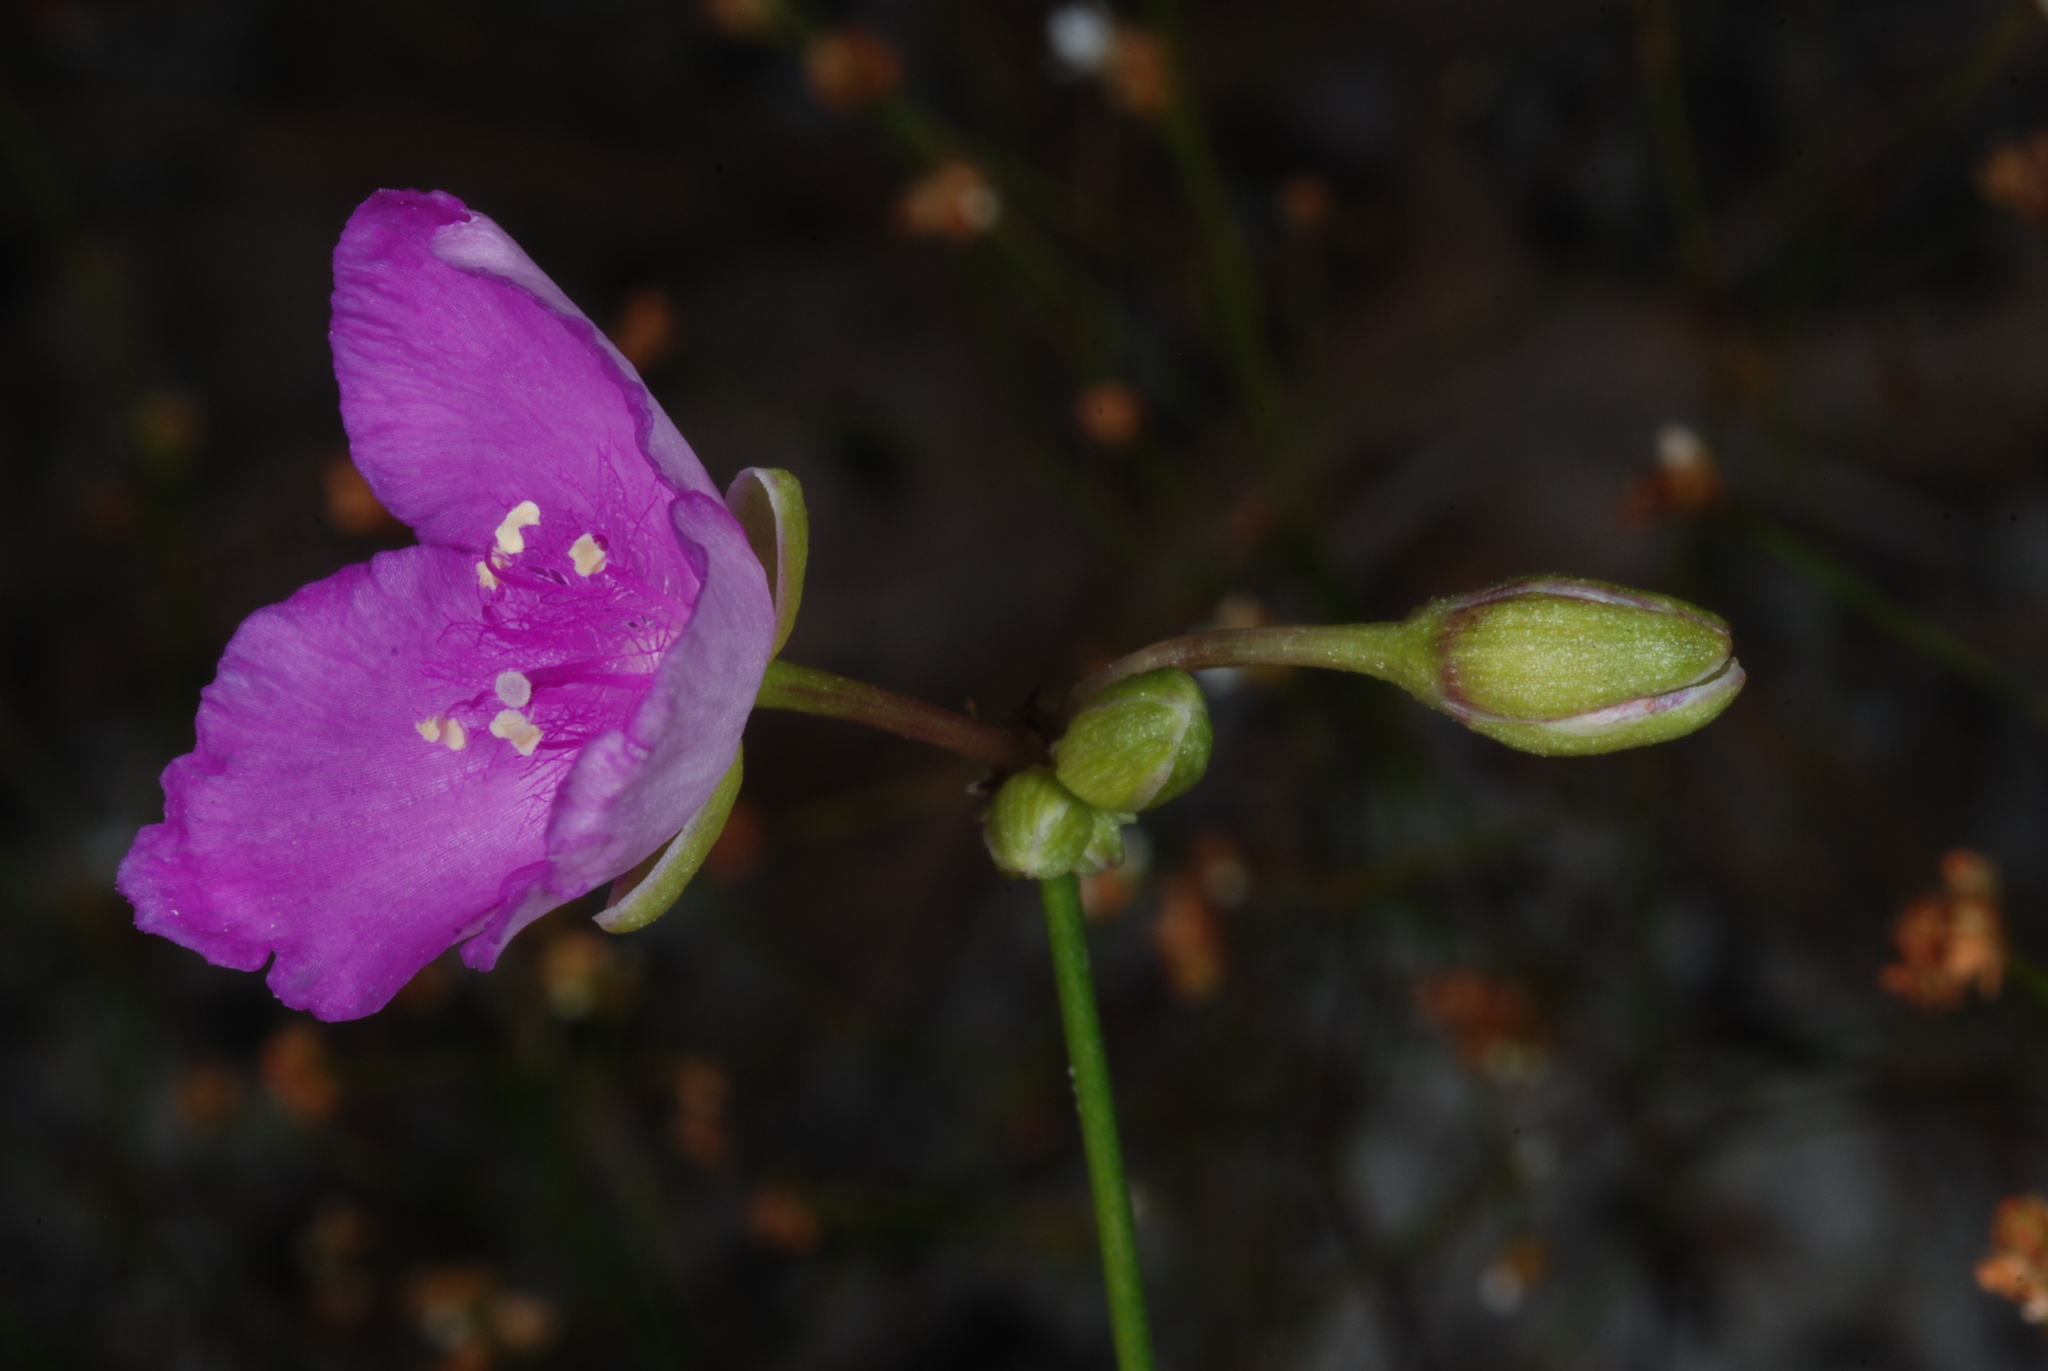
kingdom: Plantae
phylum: Tracheophyta
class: Liliopsida
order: Commelinales
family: Commelinaceae
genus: Callisia
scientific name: Callisia graminea
